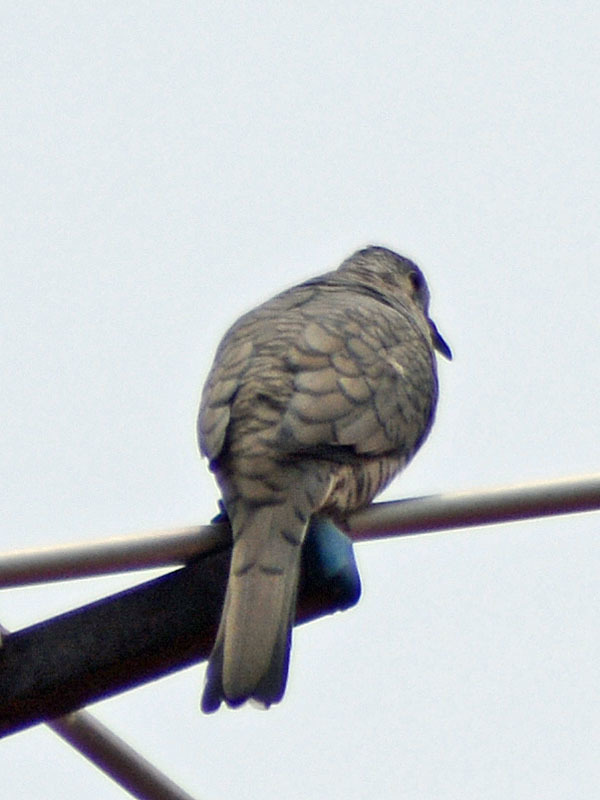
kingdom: Animalia
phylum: Chordata
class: Aves
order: Columbiformes
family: Columbidae
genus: Columbina
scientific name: Columbina inca
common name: Inca dove
